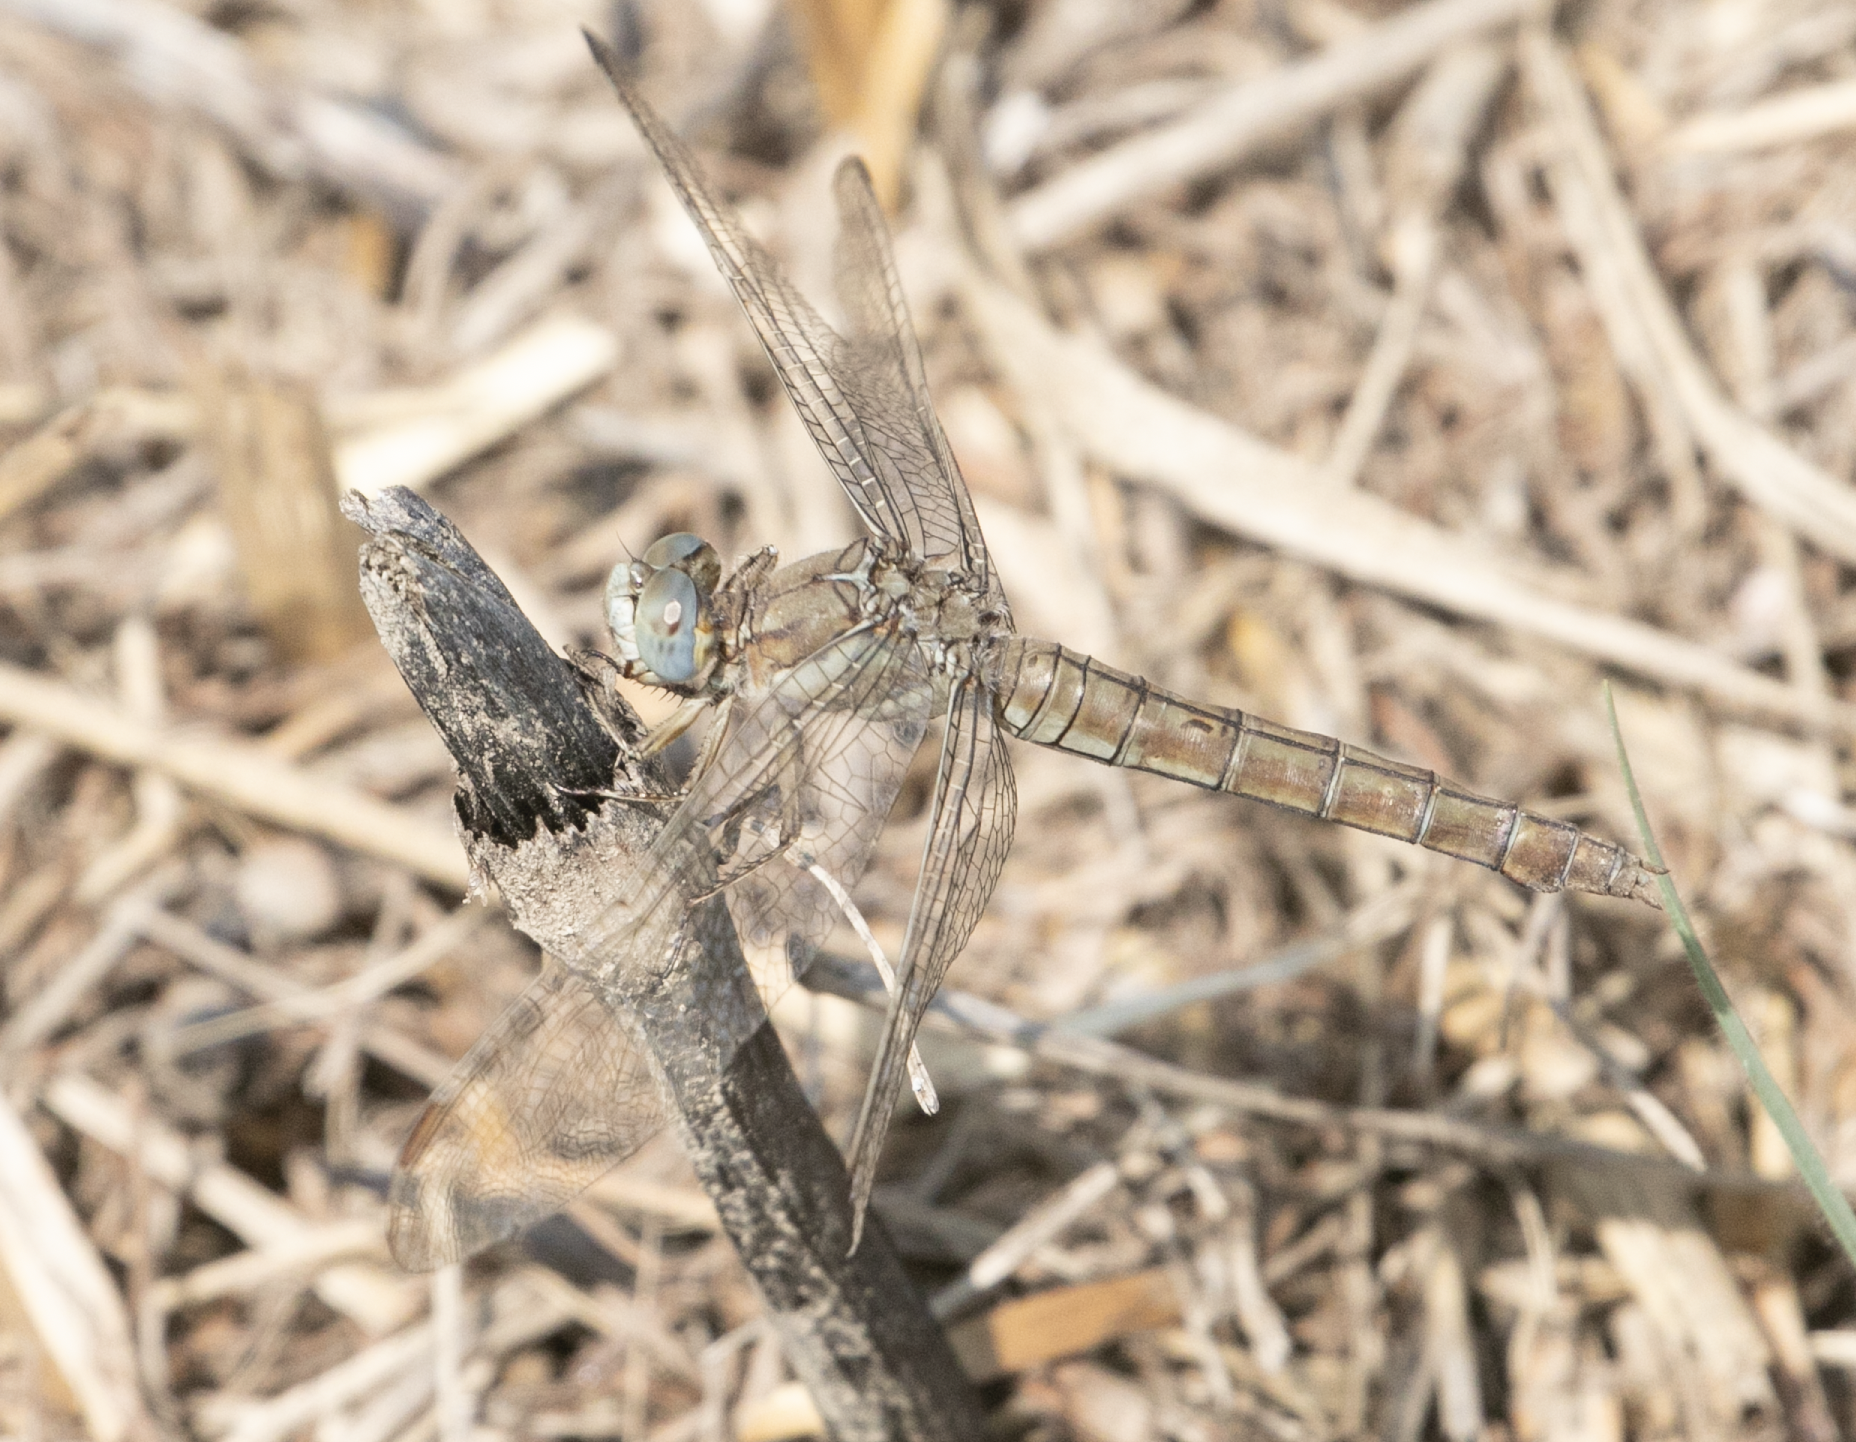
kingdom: Animalia
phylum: Arthropoda
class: Insecta
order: Odonata
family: Libellulidae
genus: Orthetrum
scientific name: Orthetrum brunneum
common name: Southern skimmer
